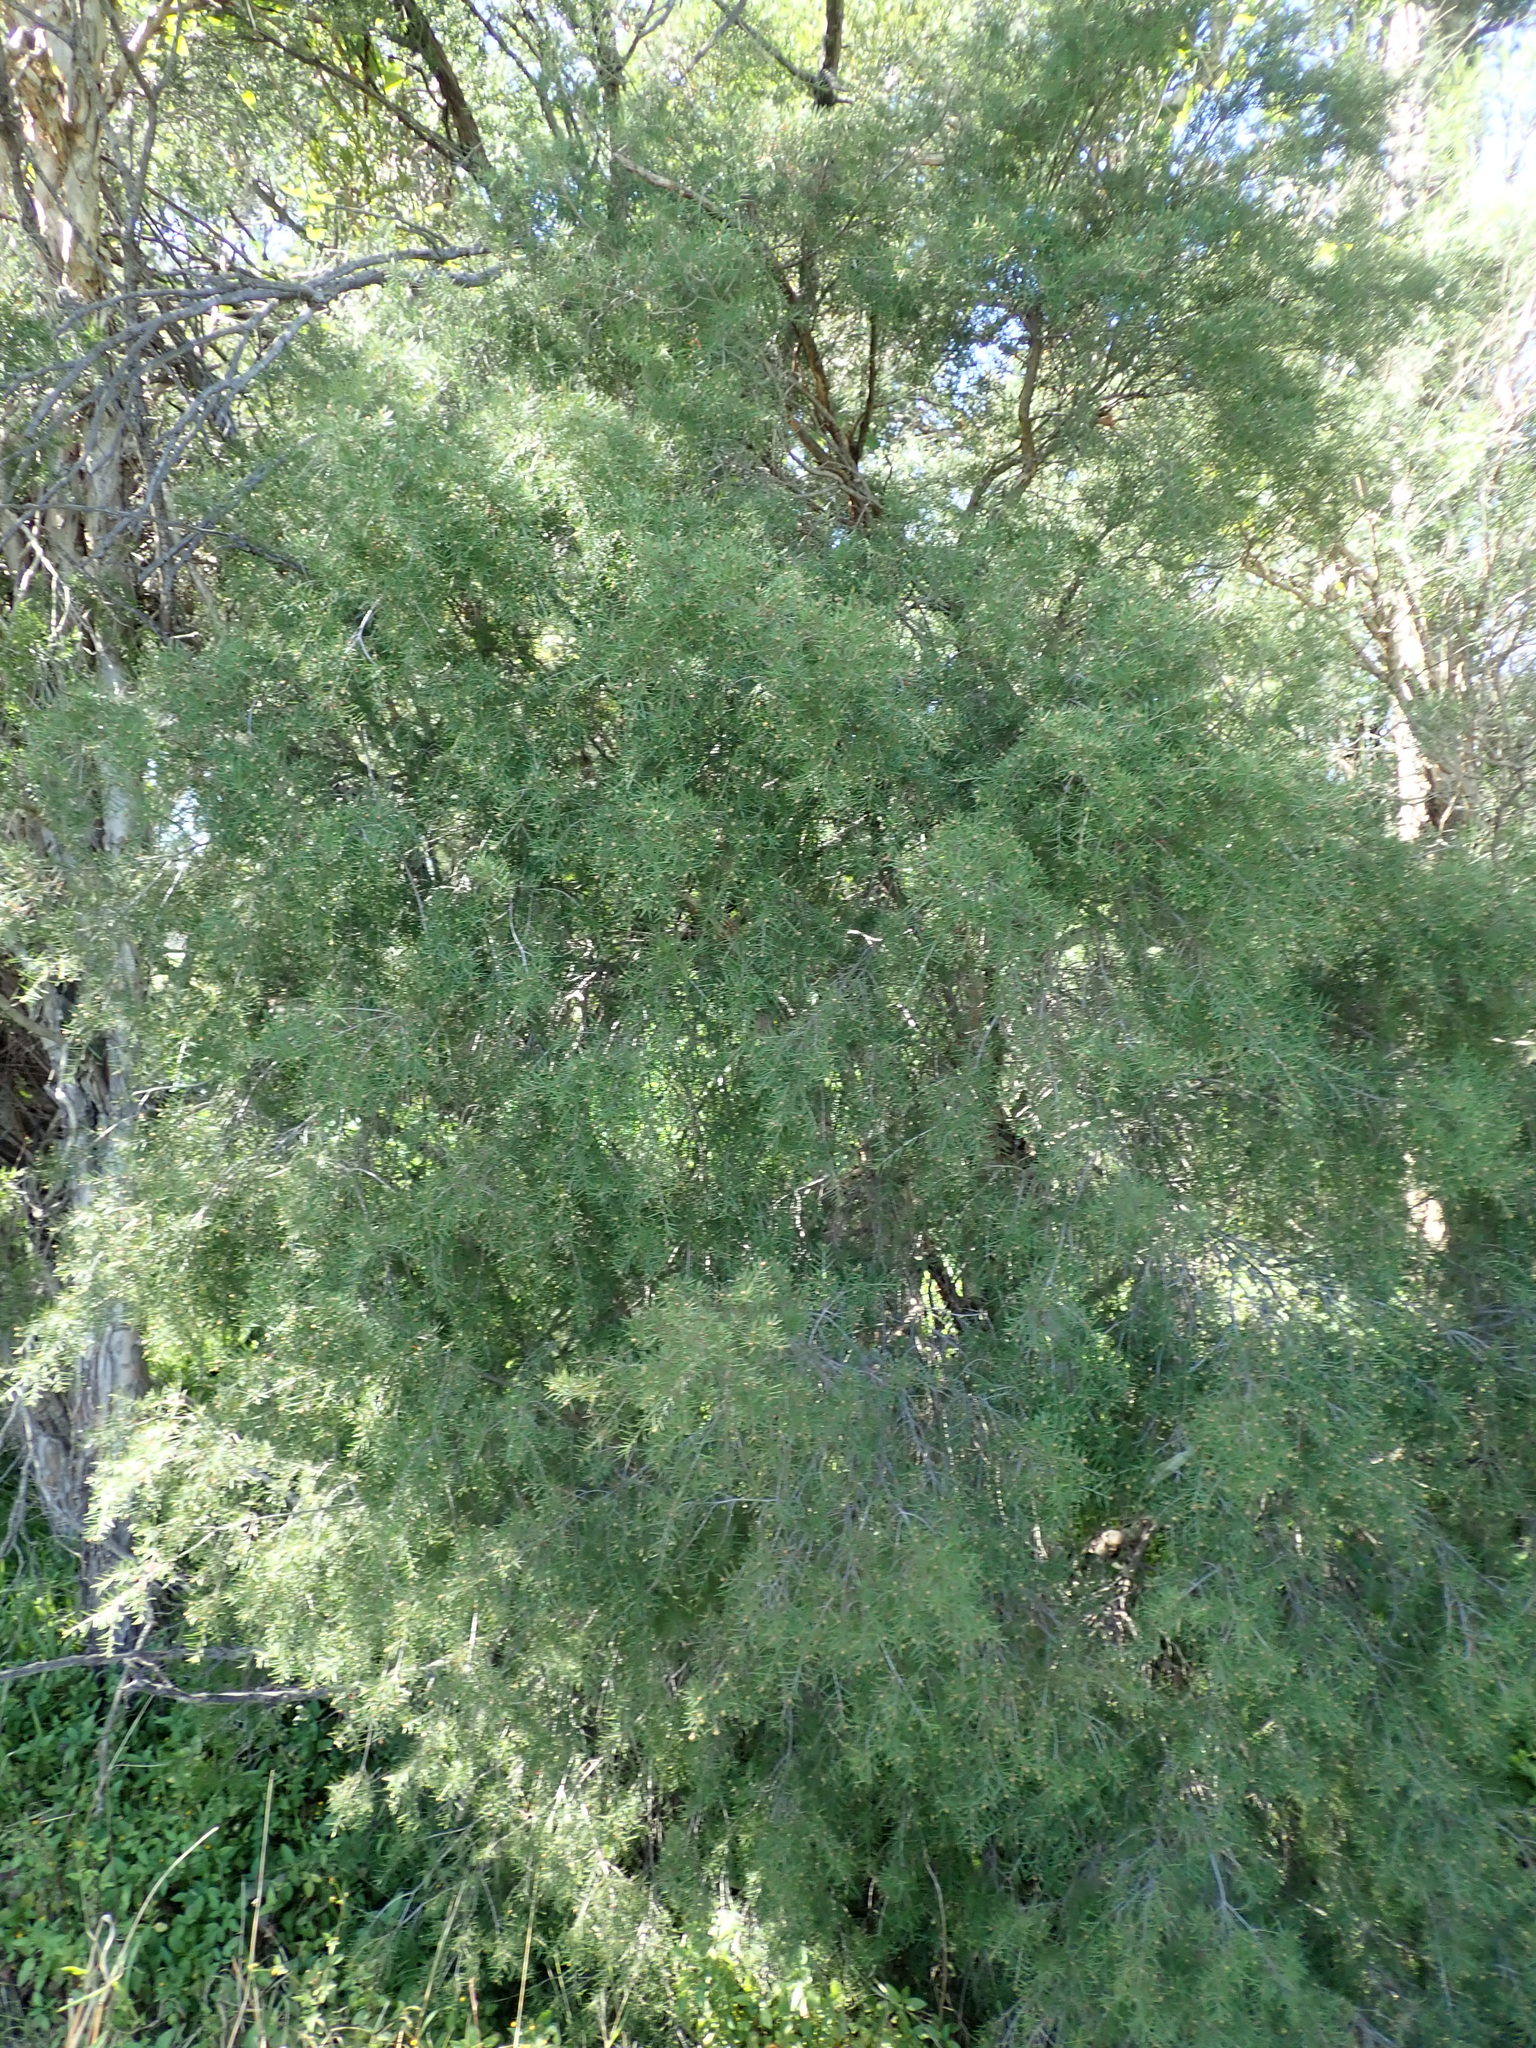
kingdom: Plantae
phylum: Tracheophyta
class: Magnoliopsida
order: Myrtales
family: Myrtaceae
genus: Melaleuca
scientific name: Melaleuca nodosa
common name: Prickly-leaf paperbark
